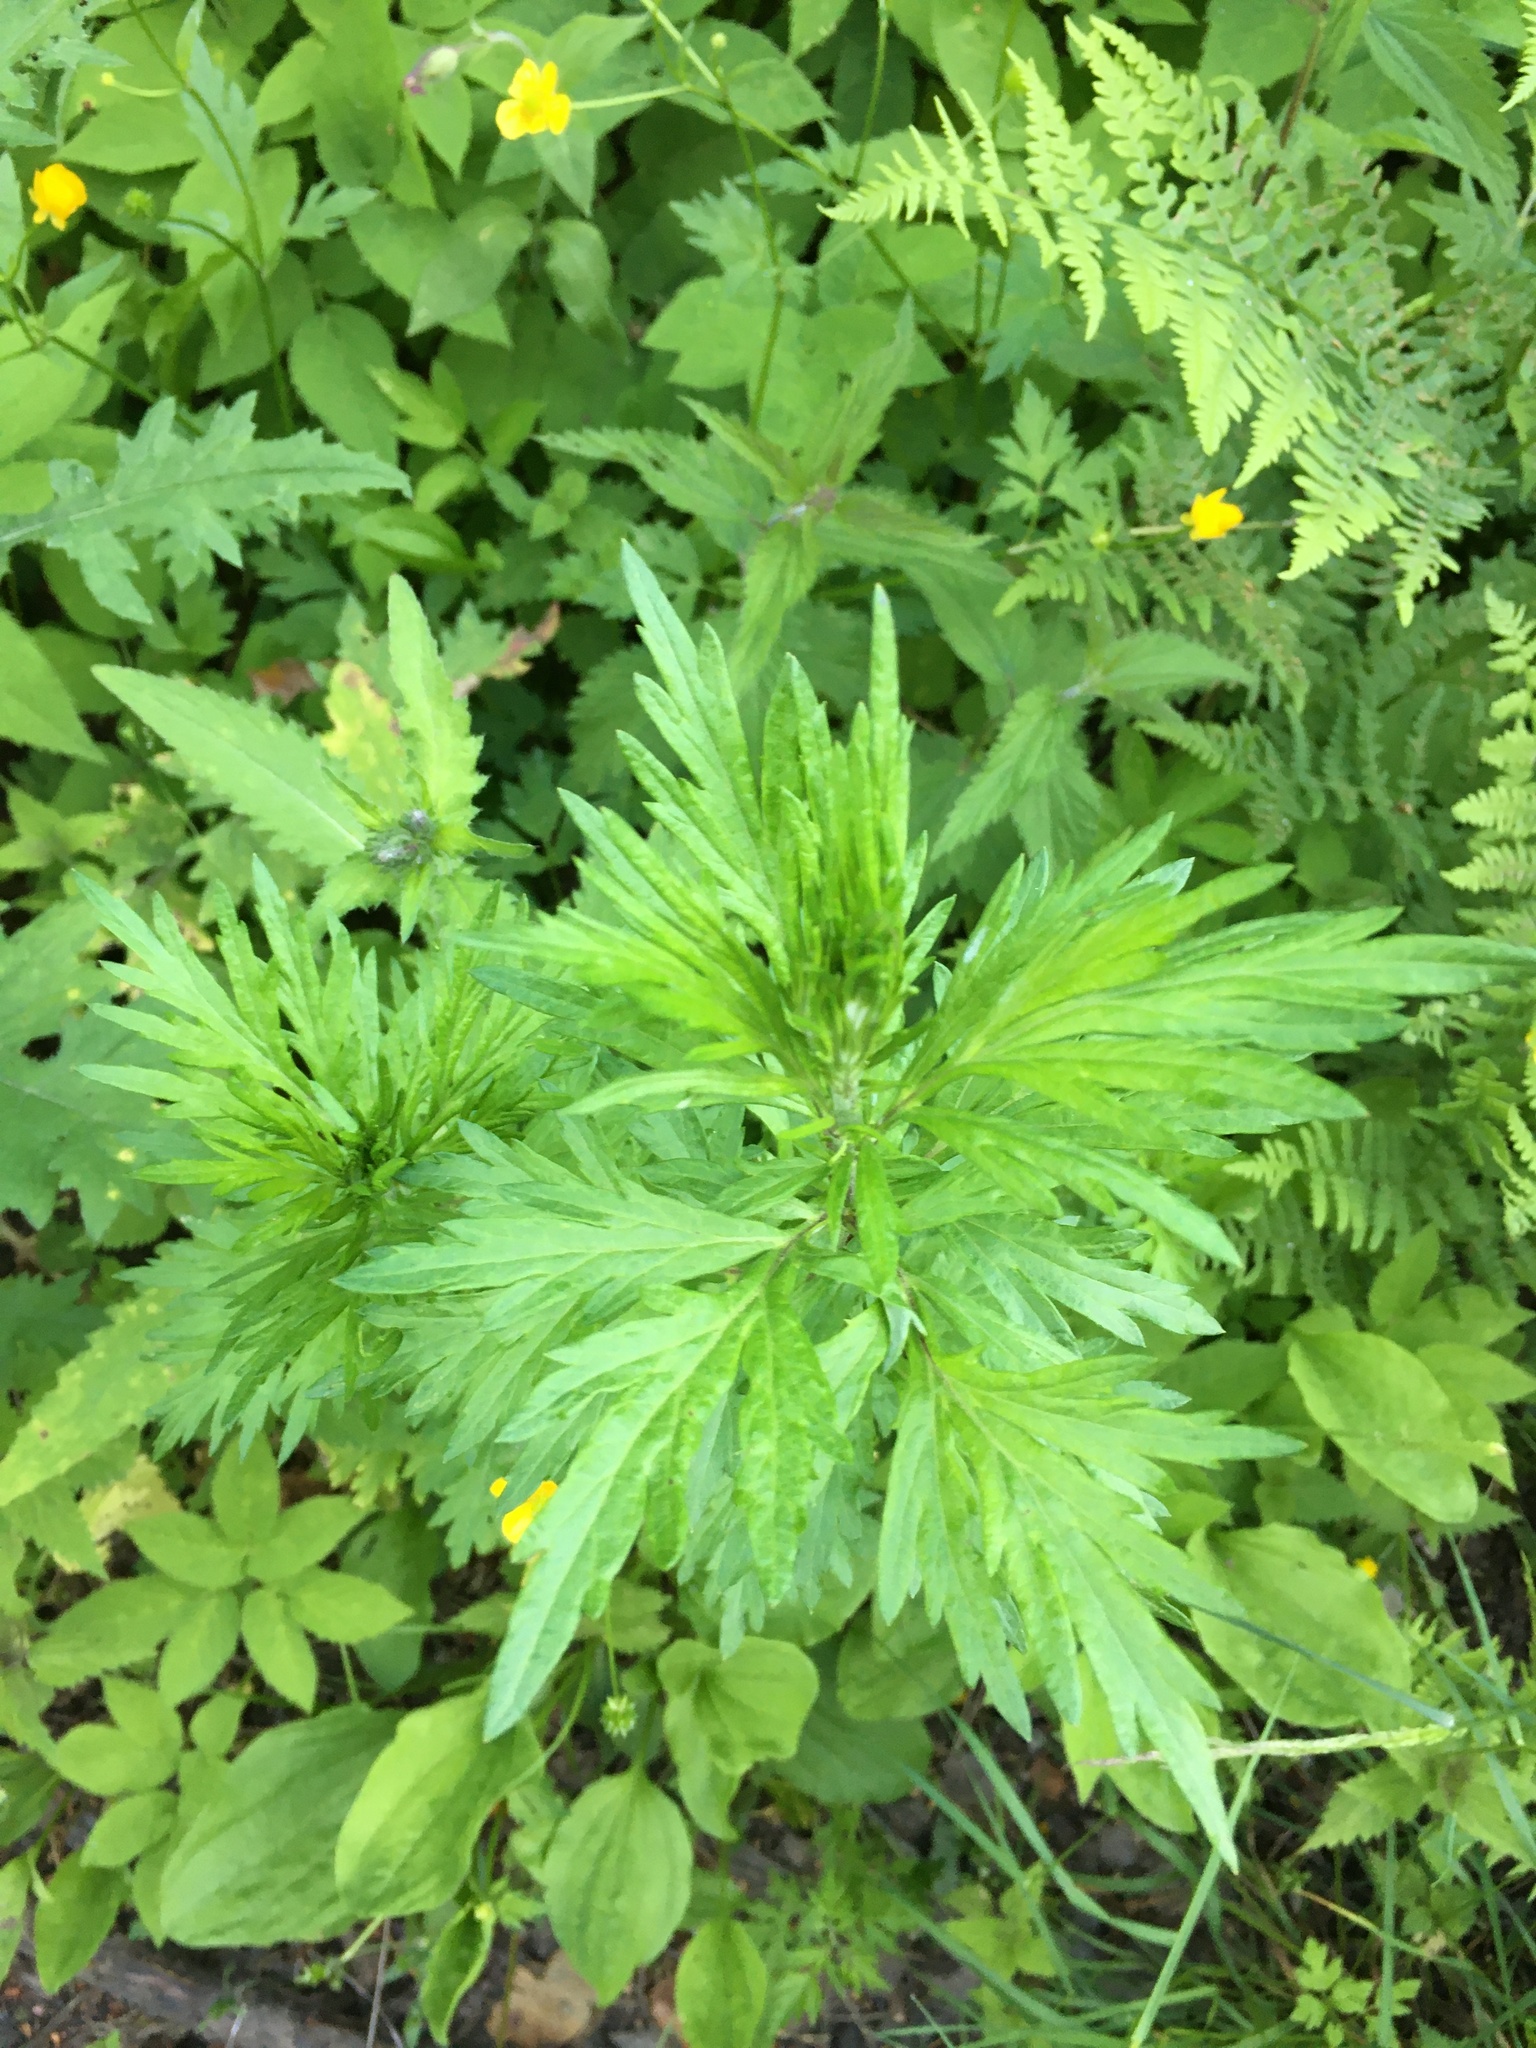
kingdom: Plantae
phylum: Tracheophyta
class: Magnoliopsida
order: Asterales
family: Asteraceae
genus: Artemisia
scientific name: Artemisia vulgaris
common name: Mugwort
